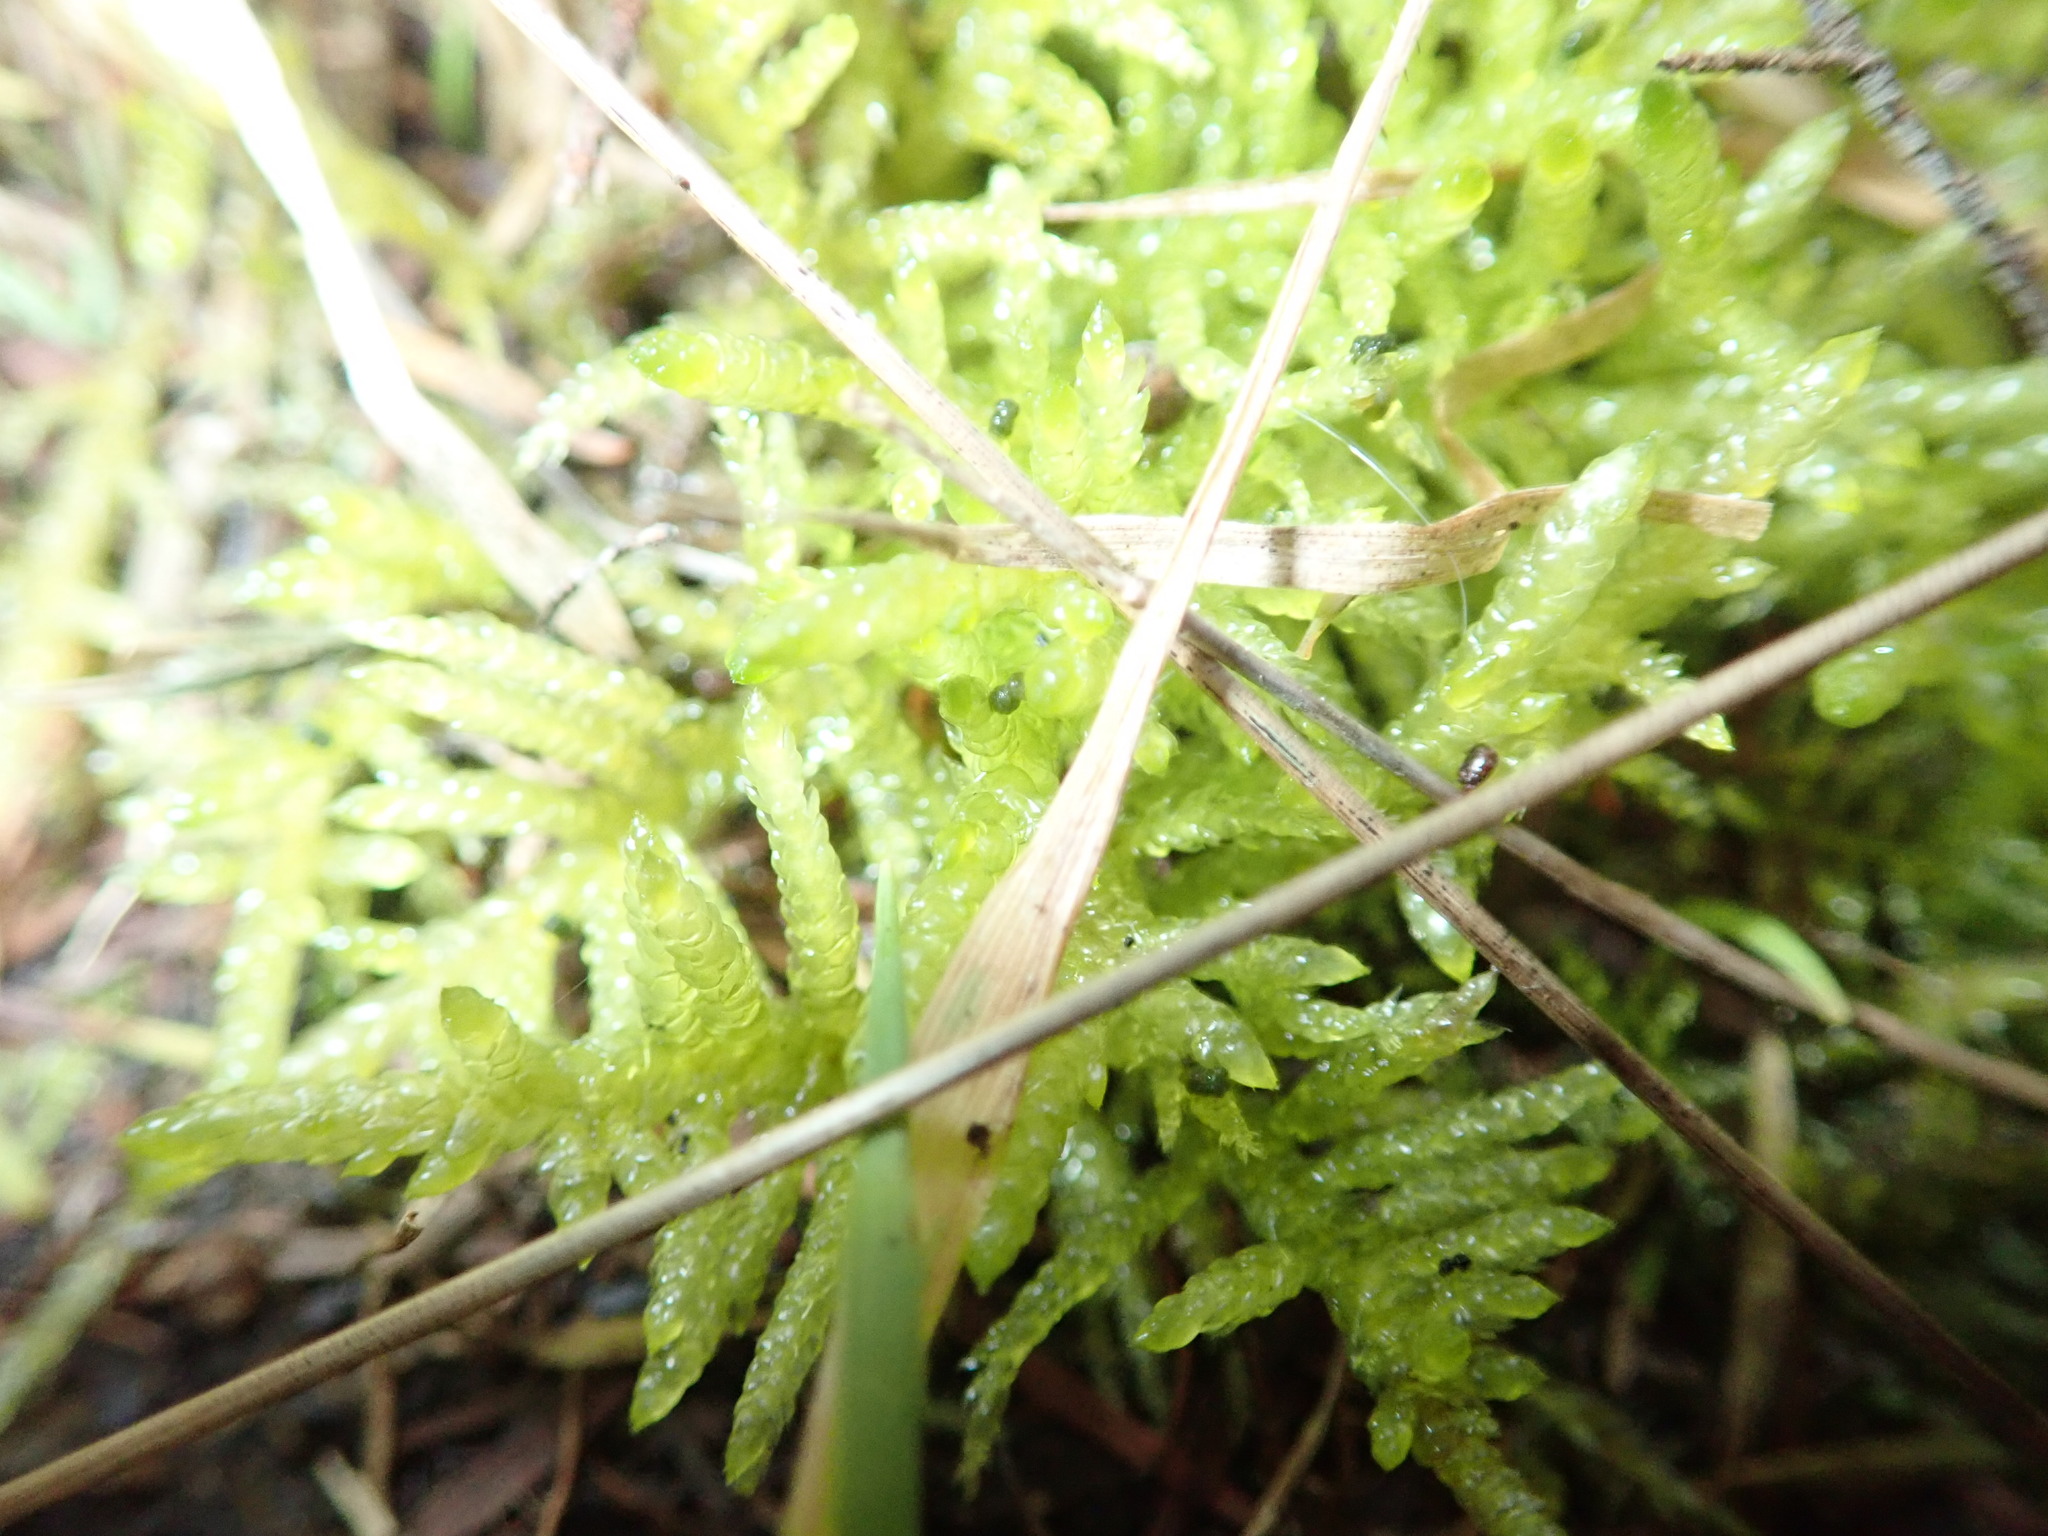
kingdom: Plantae
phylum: Bryophyta
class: Bryopsida
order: Hypnales
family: Brachytheciaceae
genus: Pseudoscleropodium
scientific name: Pseudoscleropodium purum
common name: Neat feather-moss
